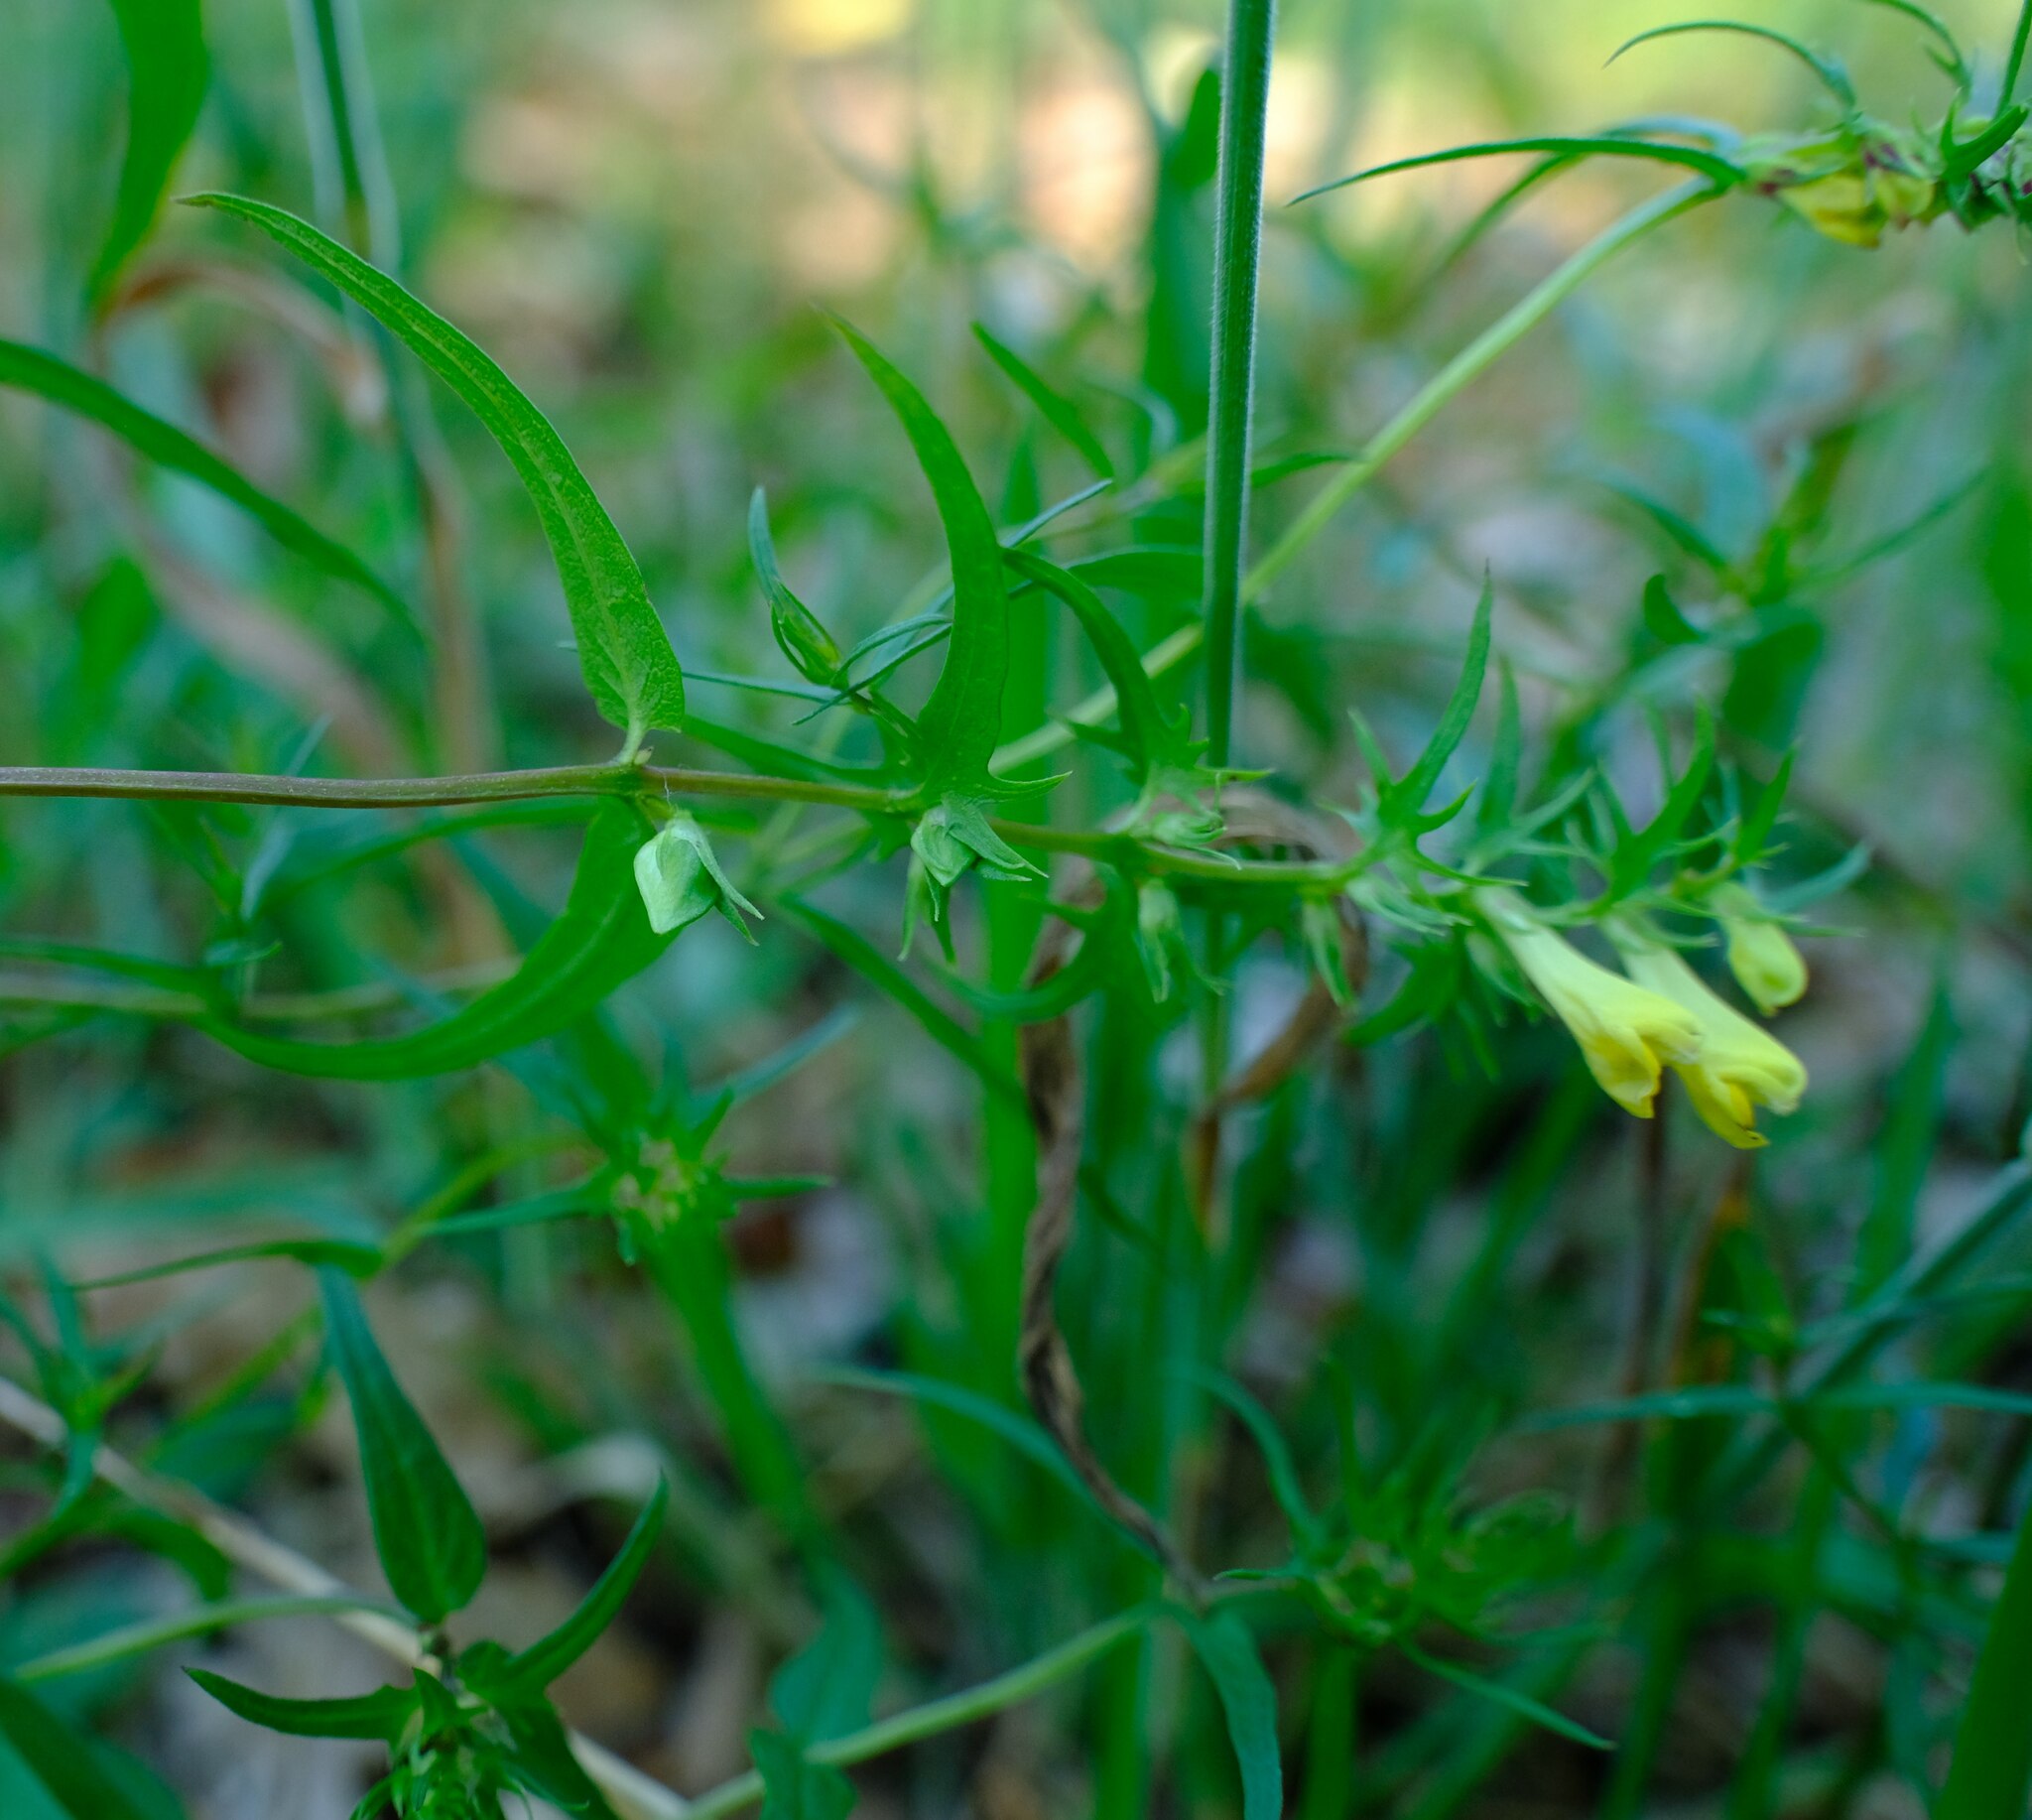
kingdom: Plantae
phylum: Tracheophyta
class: Magnoliopsida
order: Lamiales
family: Orobanchaceae
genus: Melampyrum
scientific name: Melampyrum pratense
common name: Common cow-wheat
